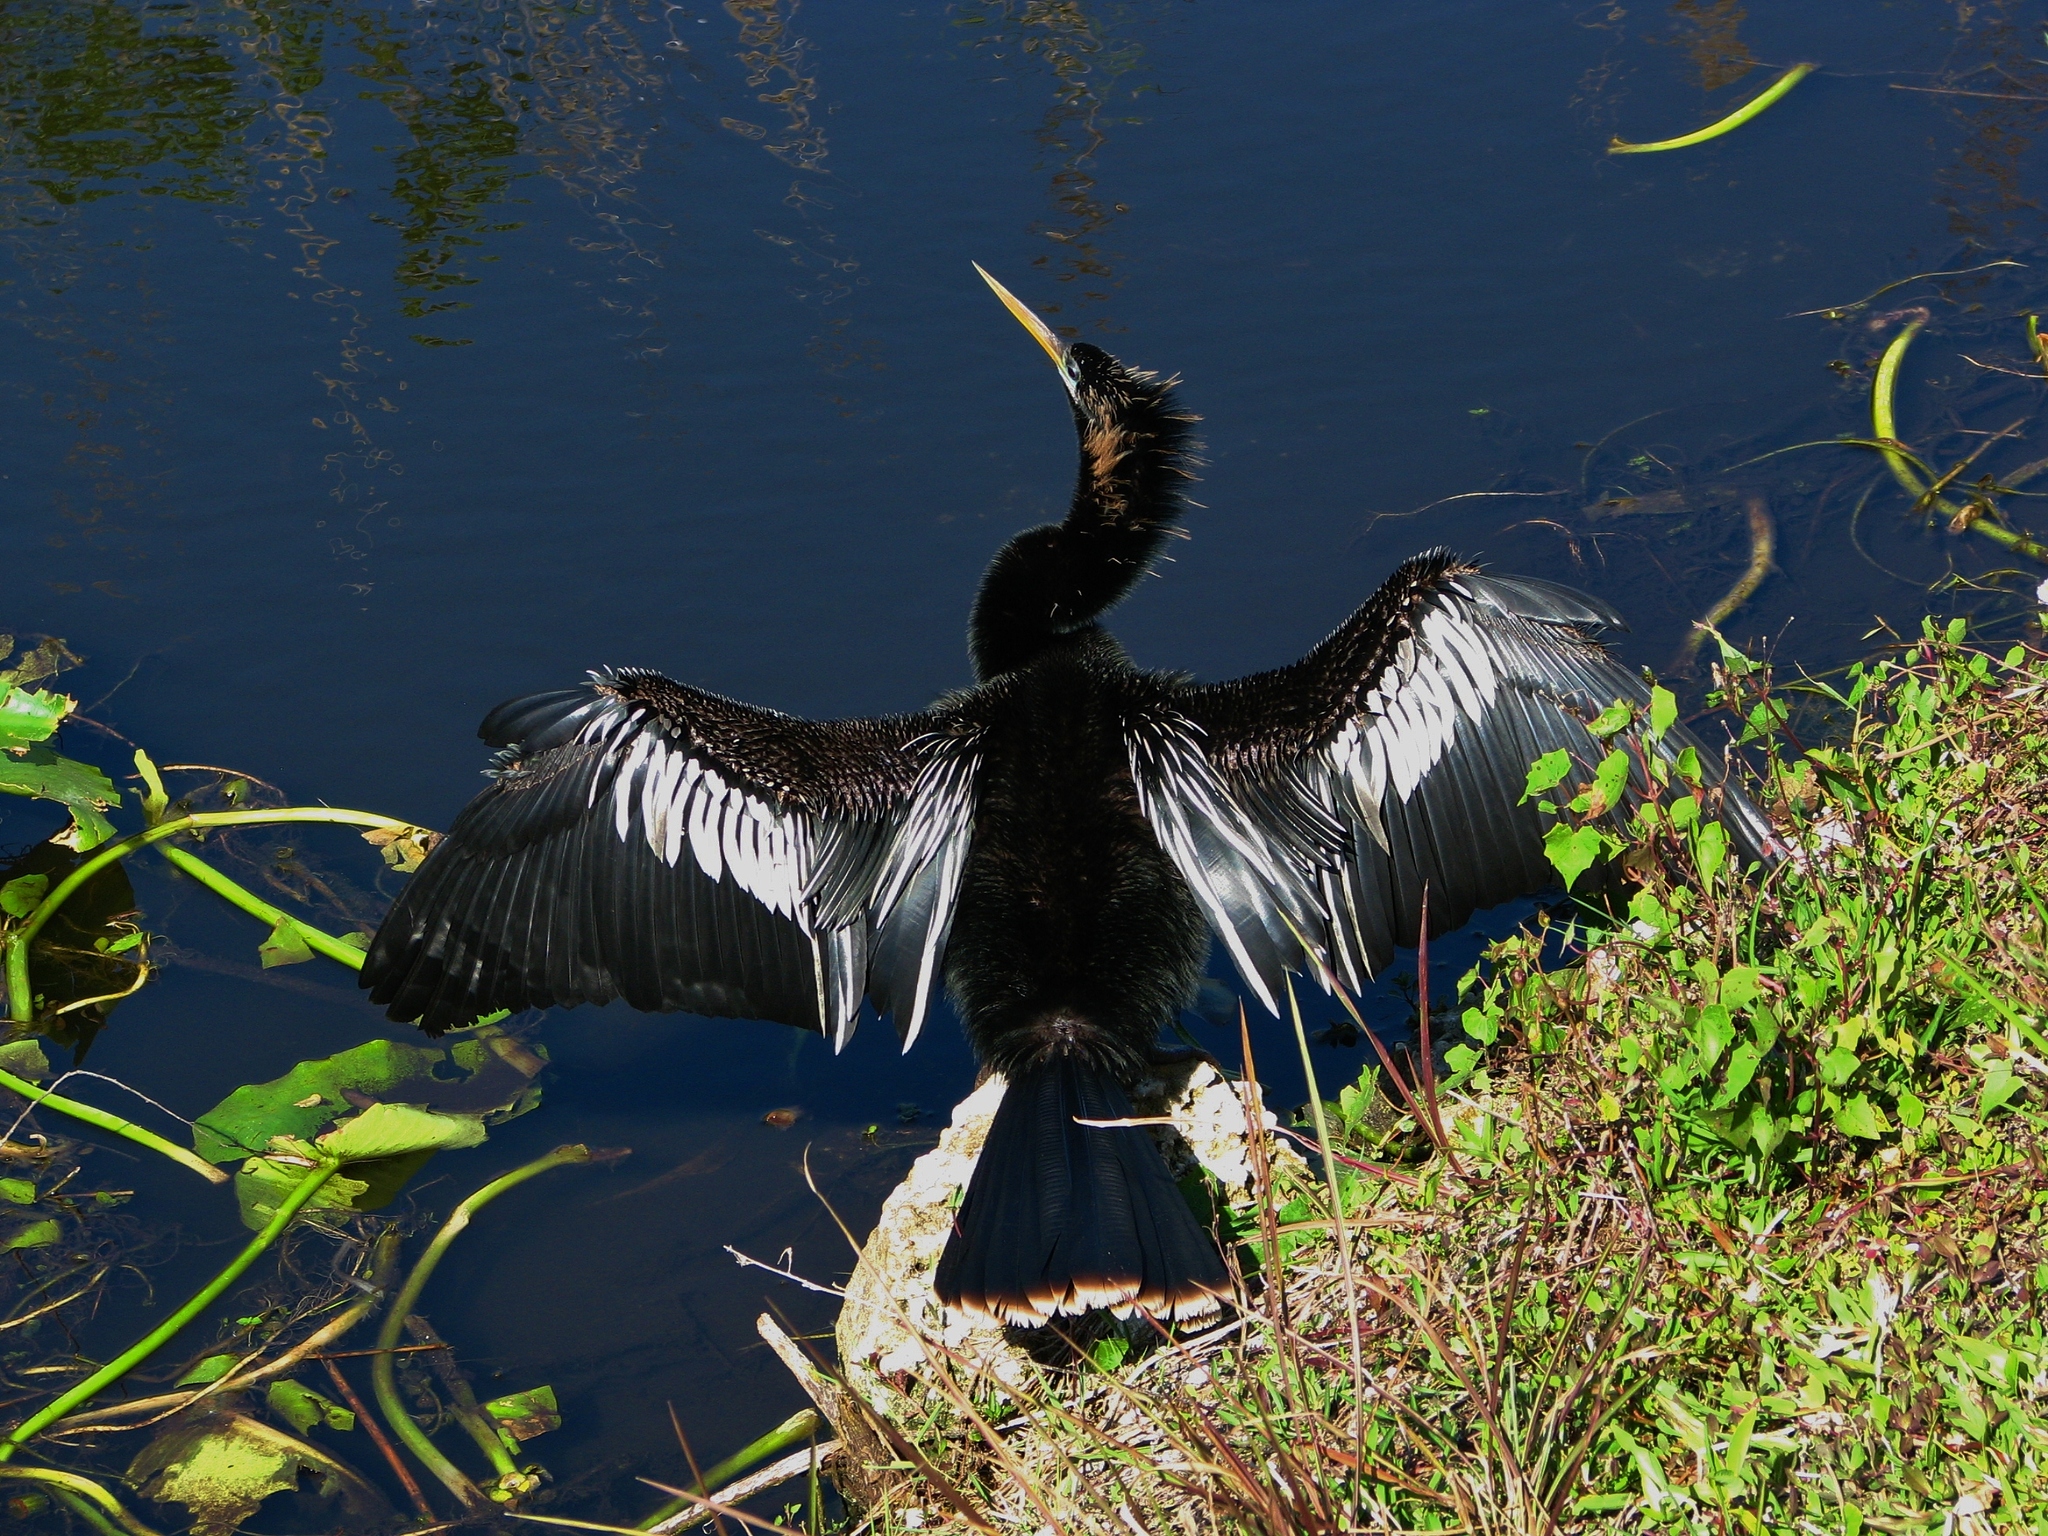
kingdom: Animalia
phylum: Chordata
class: Aves
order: Suliformes
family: Anhingidae
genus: Anhinga
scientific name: Anhinga anhinga
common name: Anhinga
